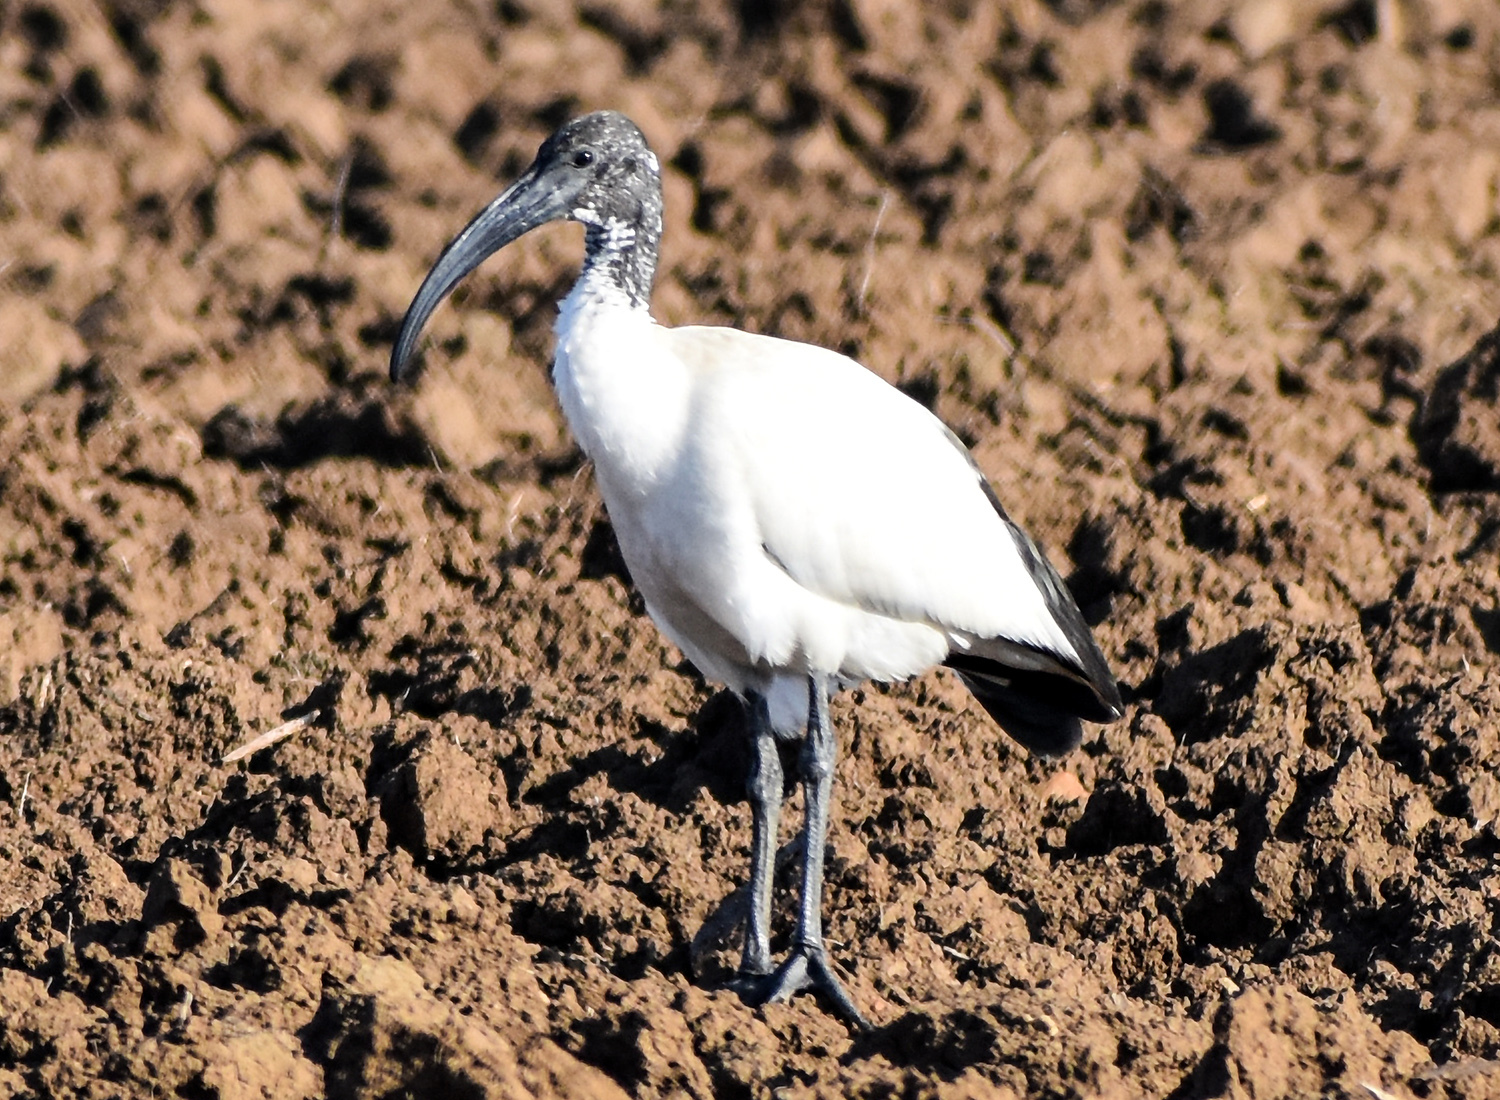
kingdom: Animalia
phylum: Chordata
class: Aves
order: Pelecaniformes
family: Threskiornithidae
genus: Threskiornis
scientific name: Threskiornis aethiopicus
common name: Sacred ibis
